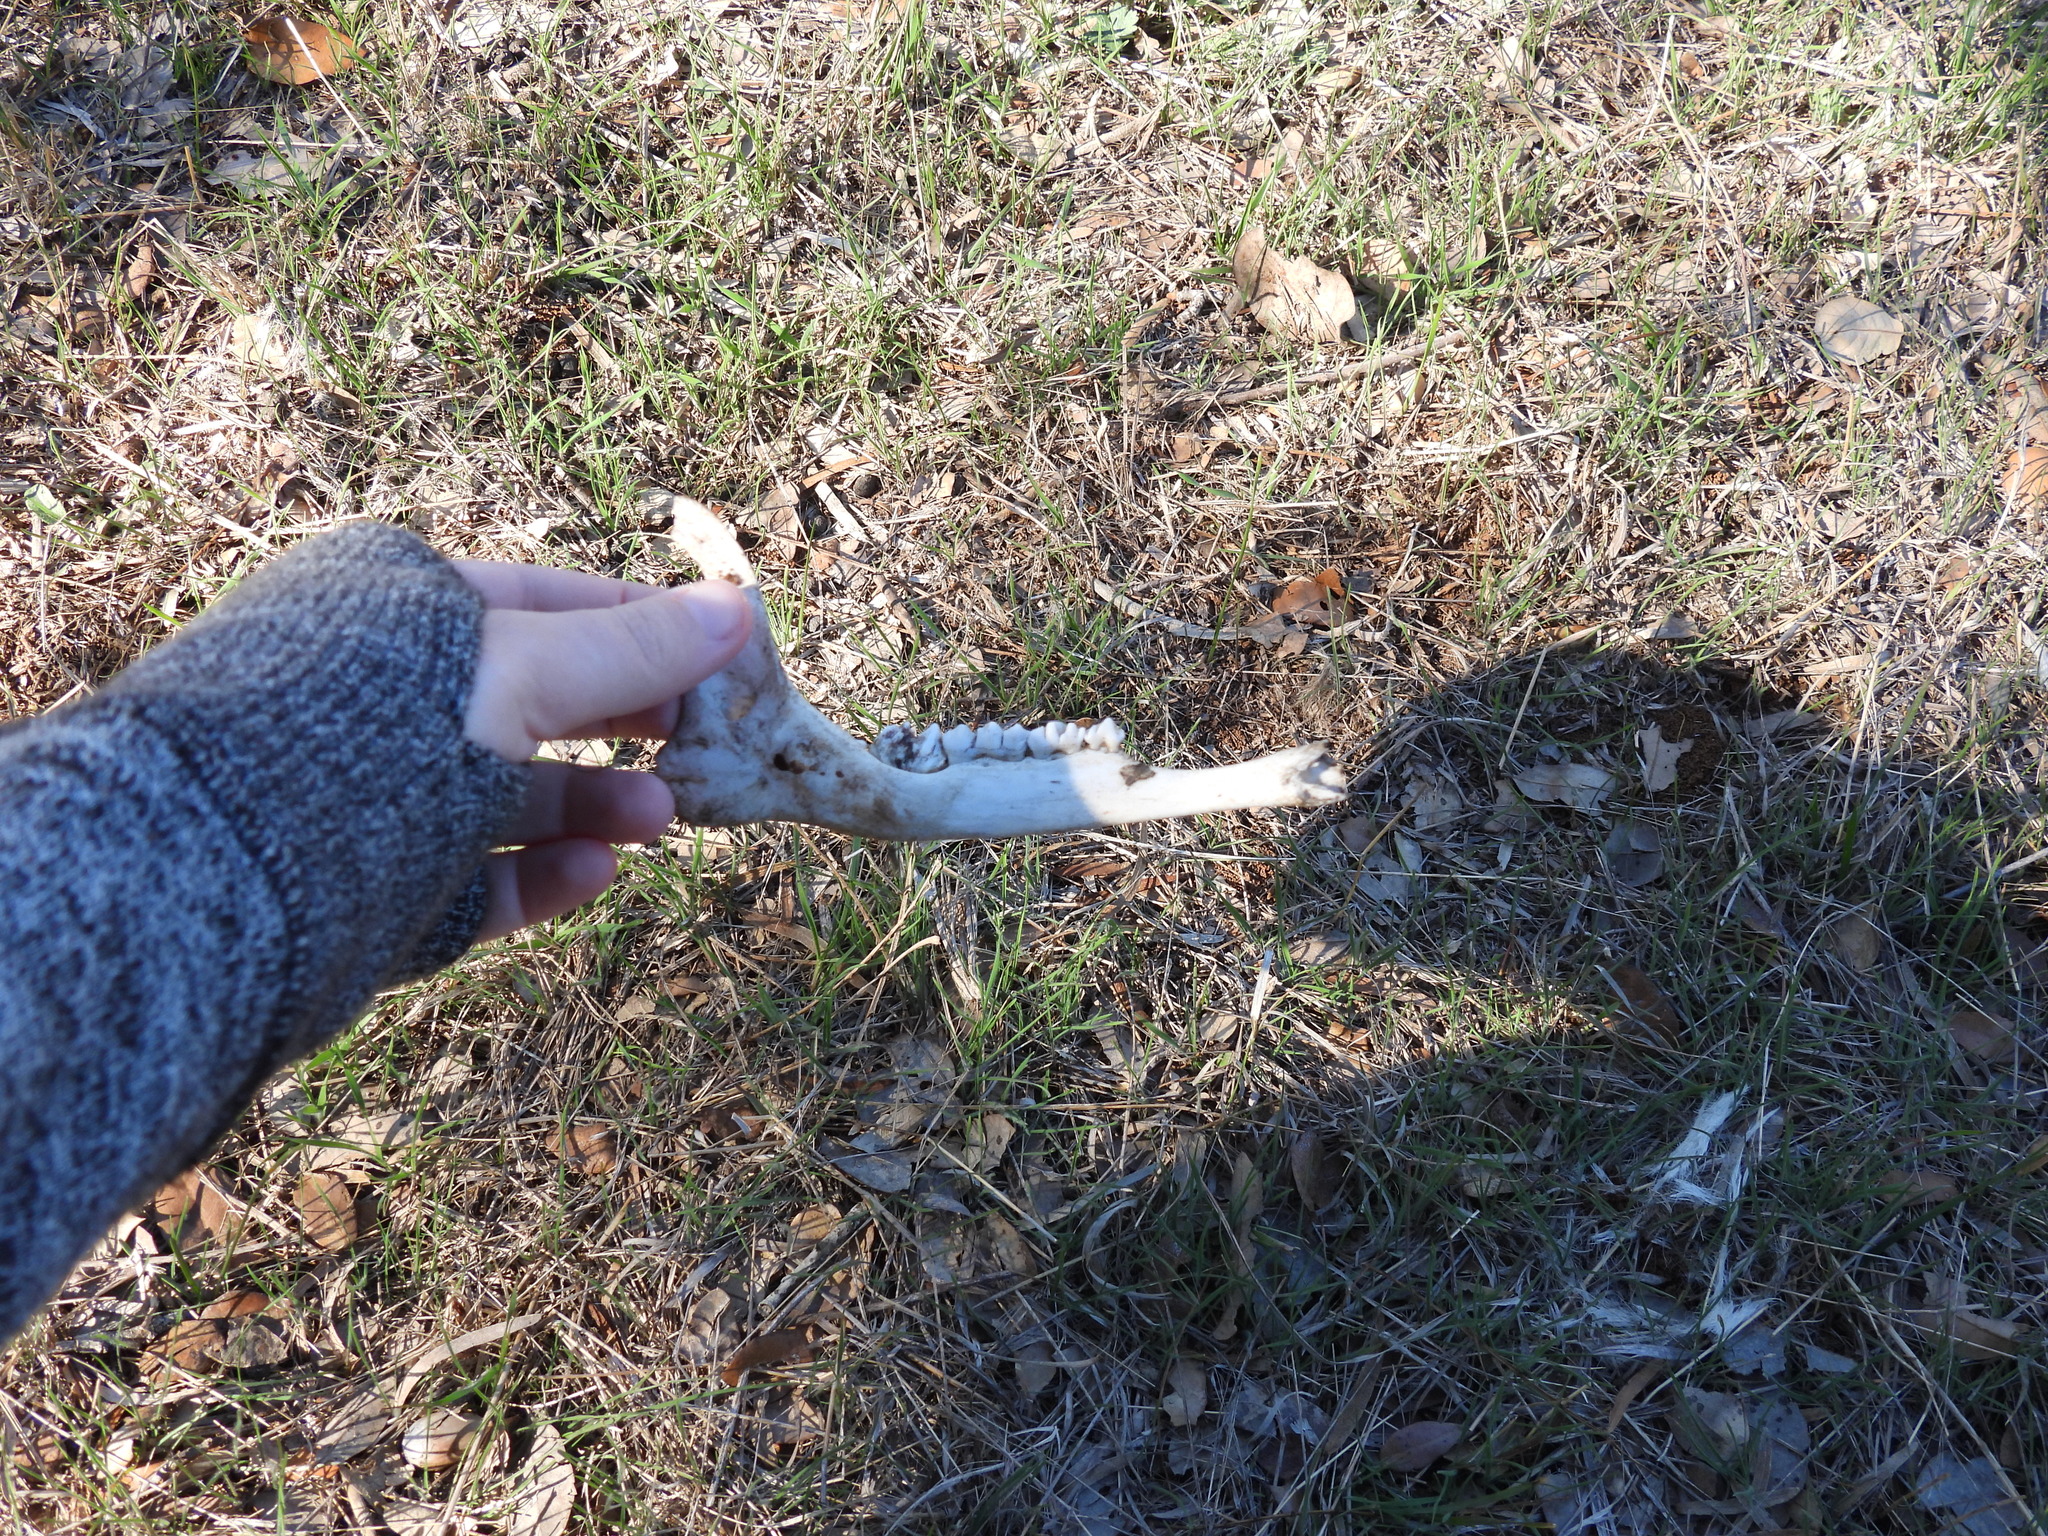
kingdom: Animalia
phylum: Chordata
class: Mammalia
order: Artiodactyla
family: Cervidae
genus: Odocoileus
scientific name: Odocoileus virginianus
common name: White-tailed deer
